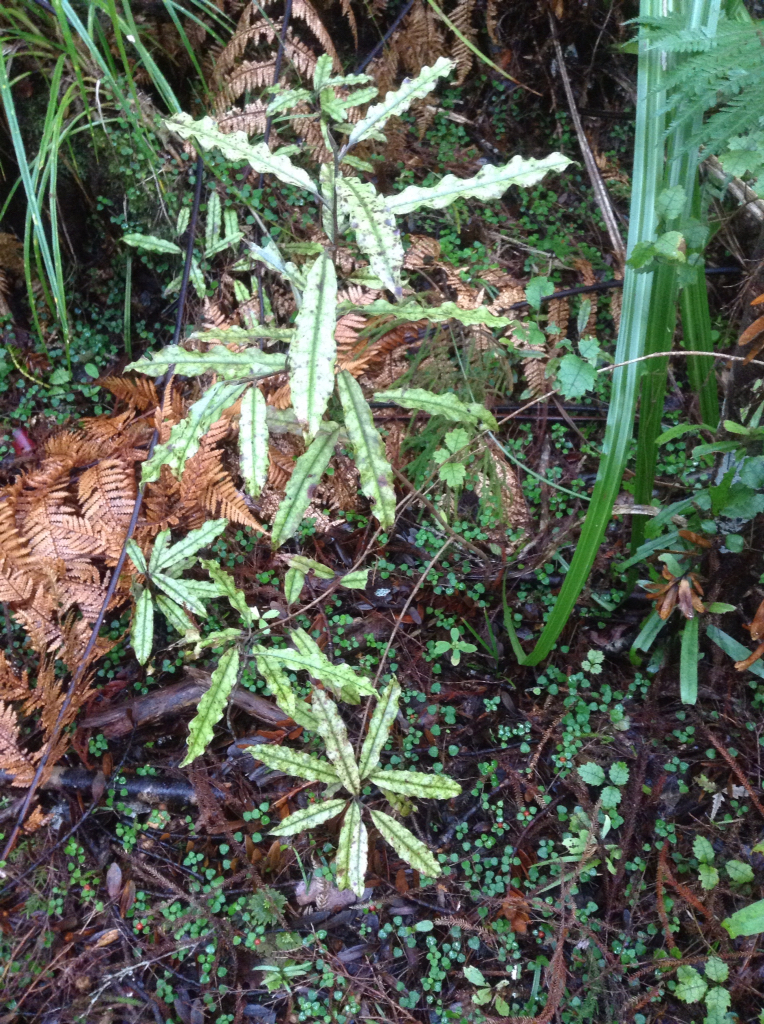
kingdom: Plantae
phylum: Tracheophyta
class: Magnoliopsida
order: Paracryphiales
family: Paracryphiaceae
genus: Quintinia
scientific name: Quintinia serrata
